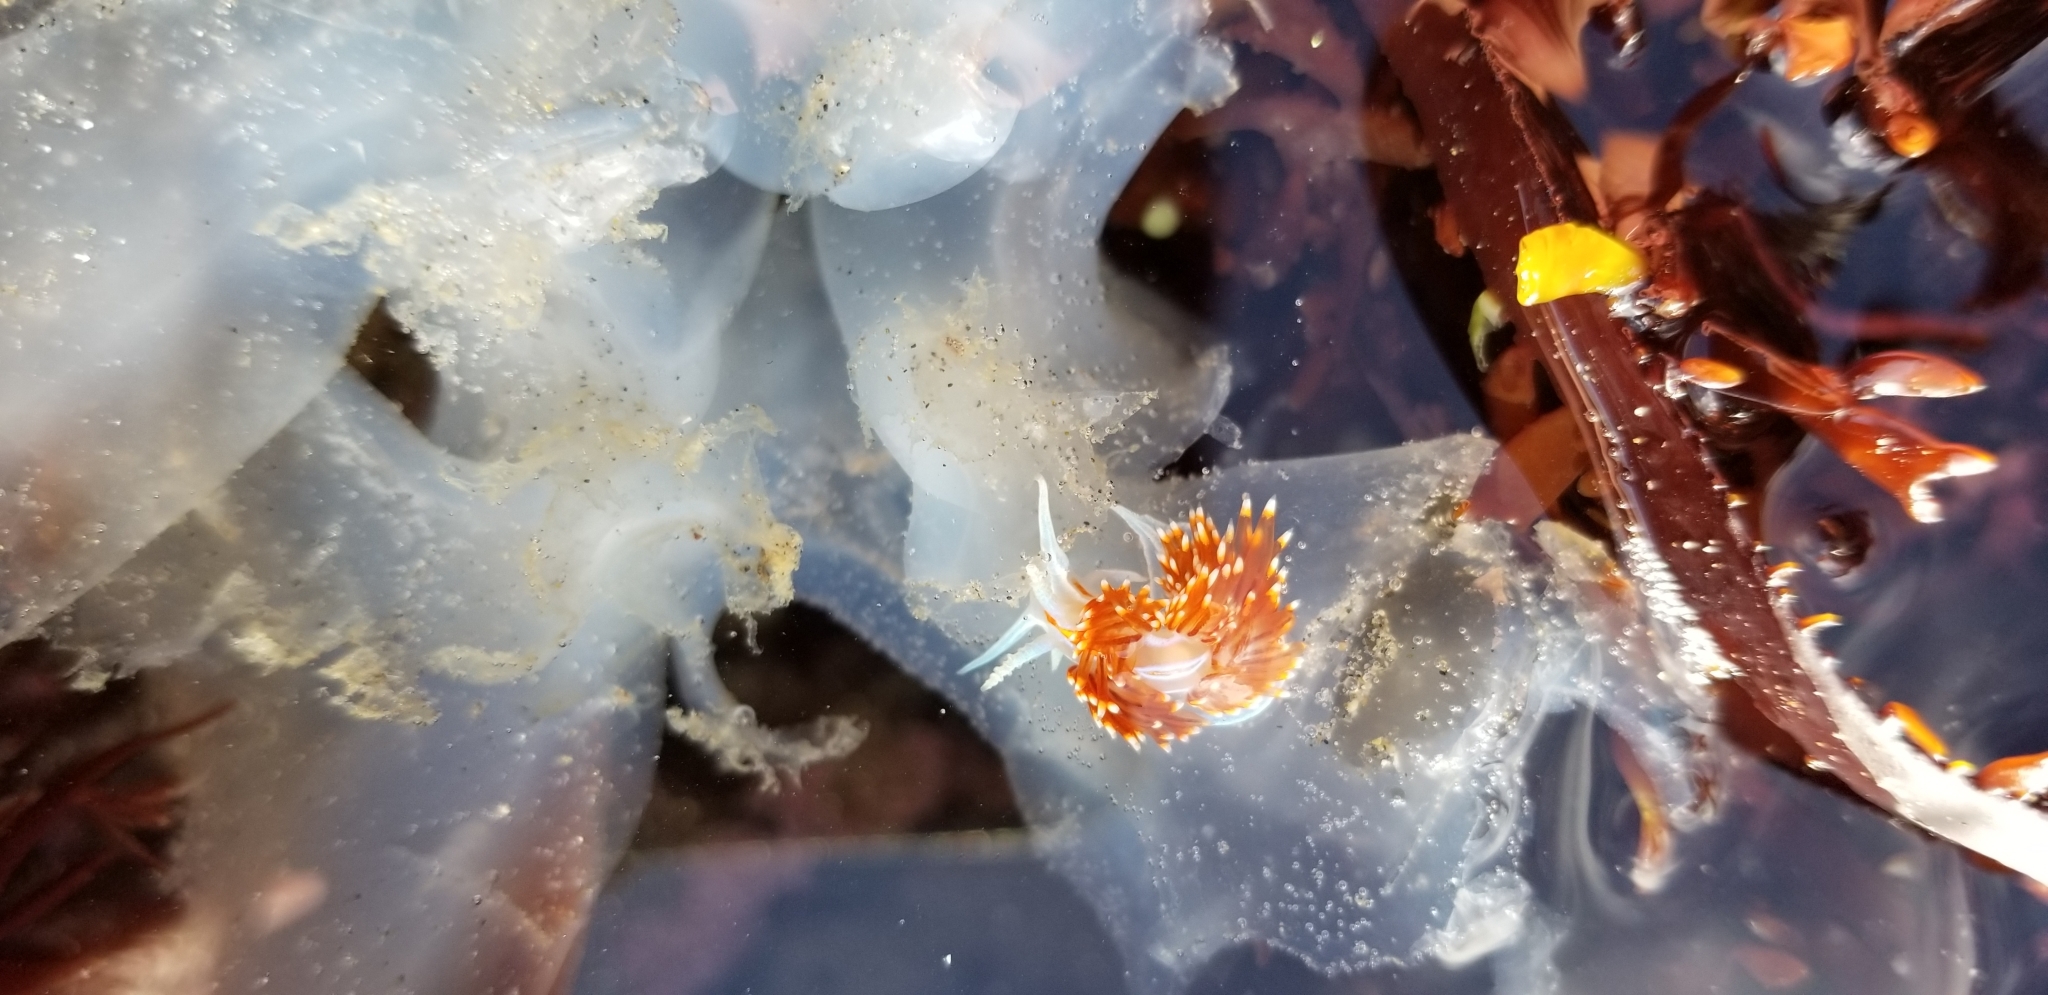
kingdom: Animalia
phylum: Mollusca
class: Gastropoda
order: Nudibranchia
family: Myrrhinidae
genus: Hermissenda
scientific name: Hermissenda opalescens
